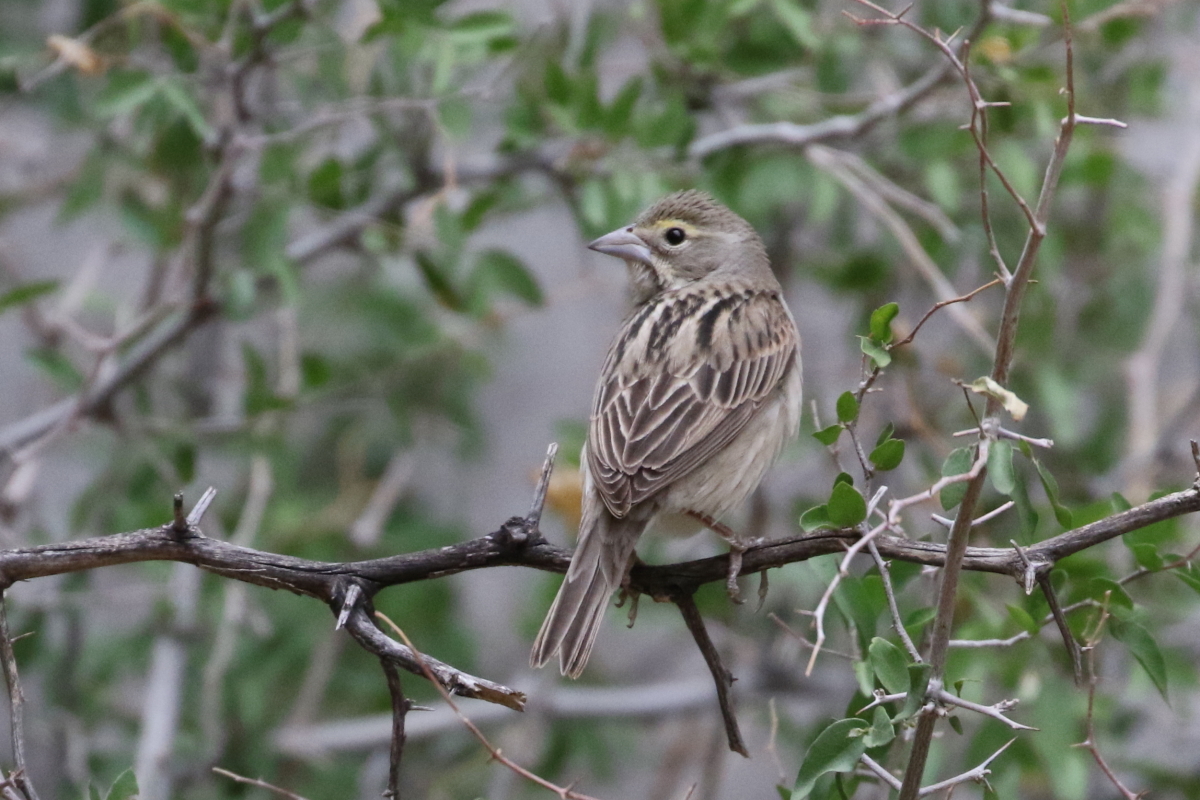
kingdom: Animalia
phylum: Chordata
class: Aves
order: Passeriformes
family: Cardinalidae
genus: Spiza
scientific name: Spiza americana
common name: Dickcissel
